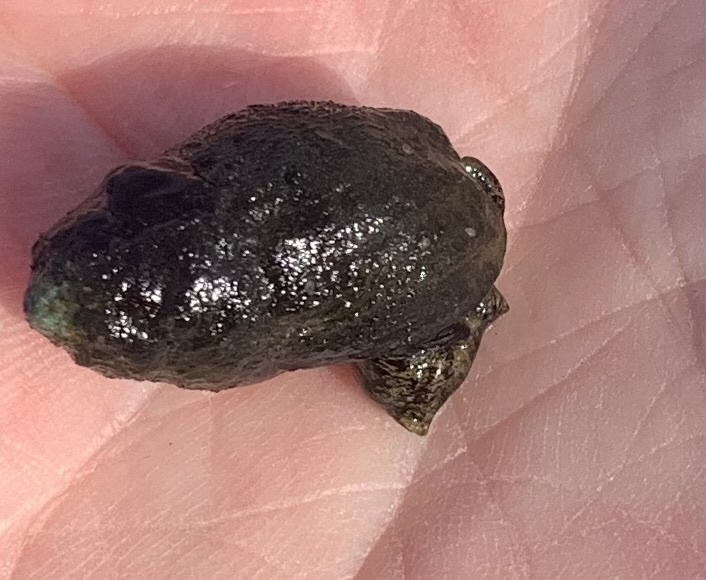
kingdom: Animalia
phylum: Mollusca
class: Gastropoda
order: Neogastropoda
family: Nassariidae
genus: Ilyanassa
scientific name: Ilyanassa obsoleta
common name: Eastern mudsnail
